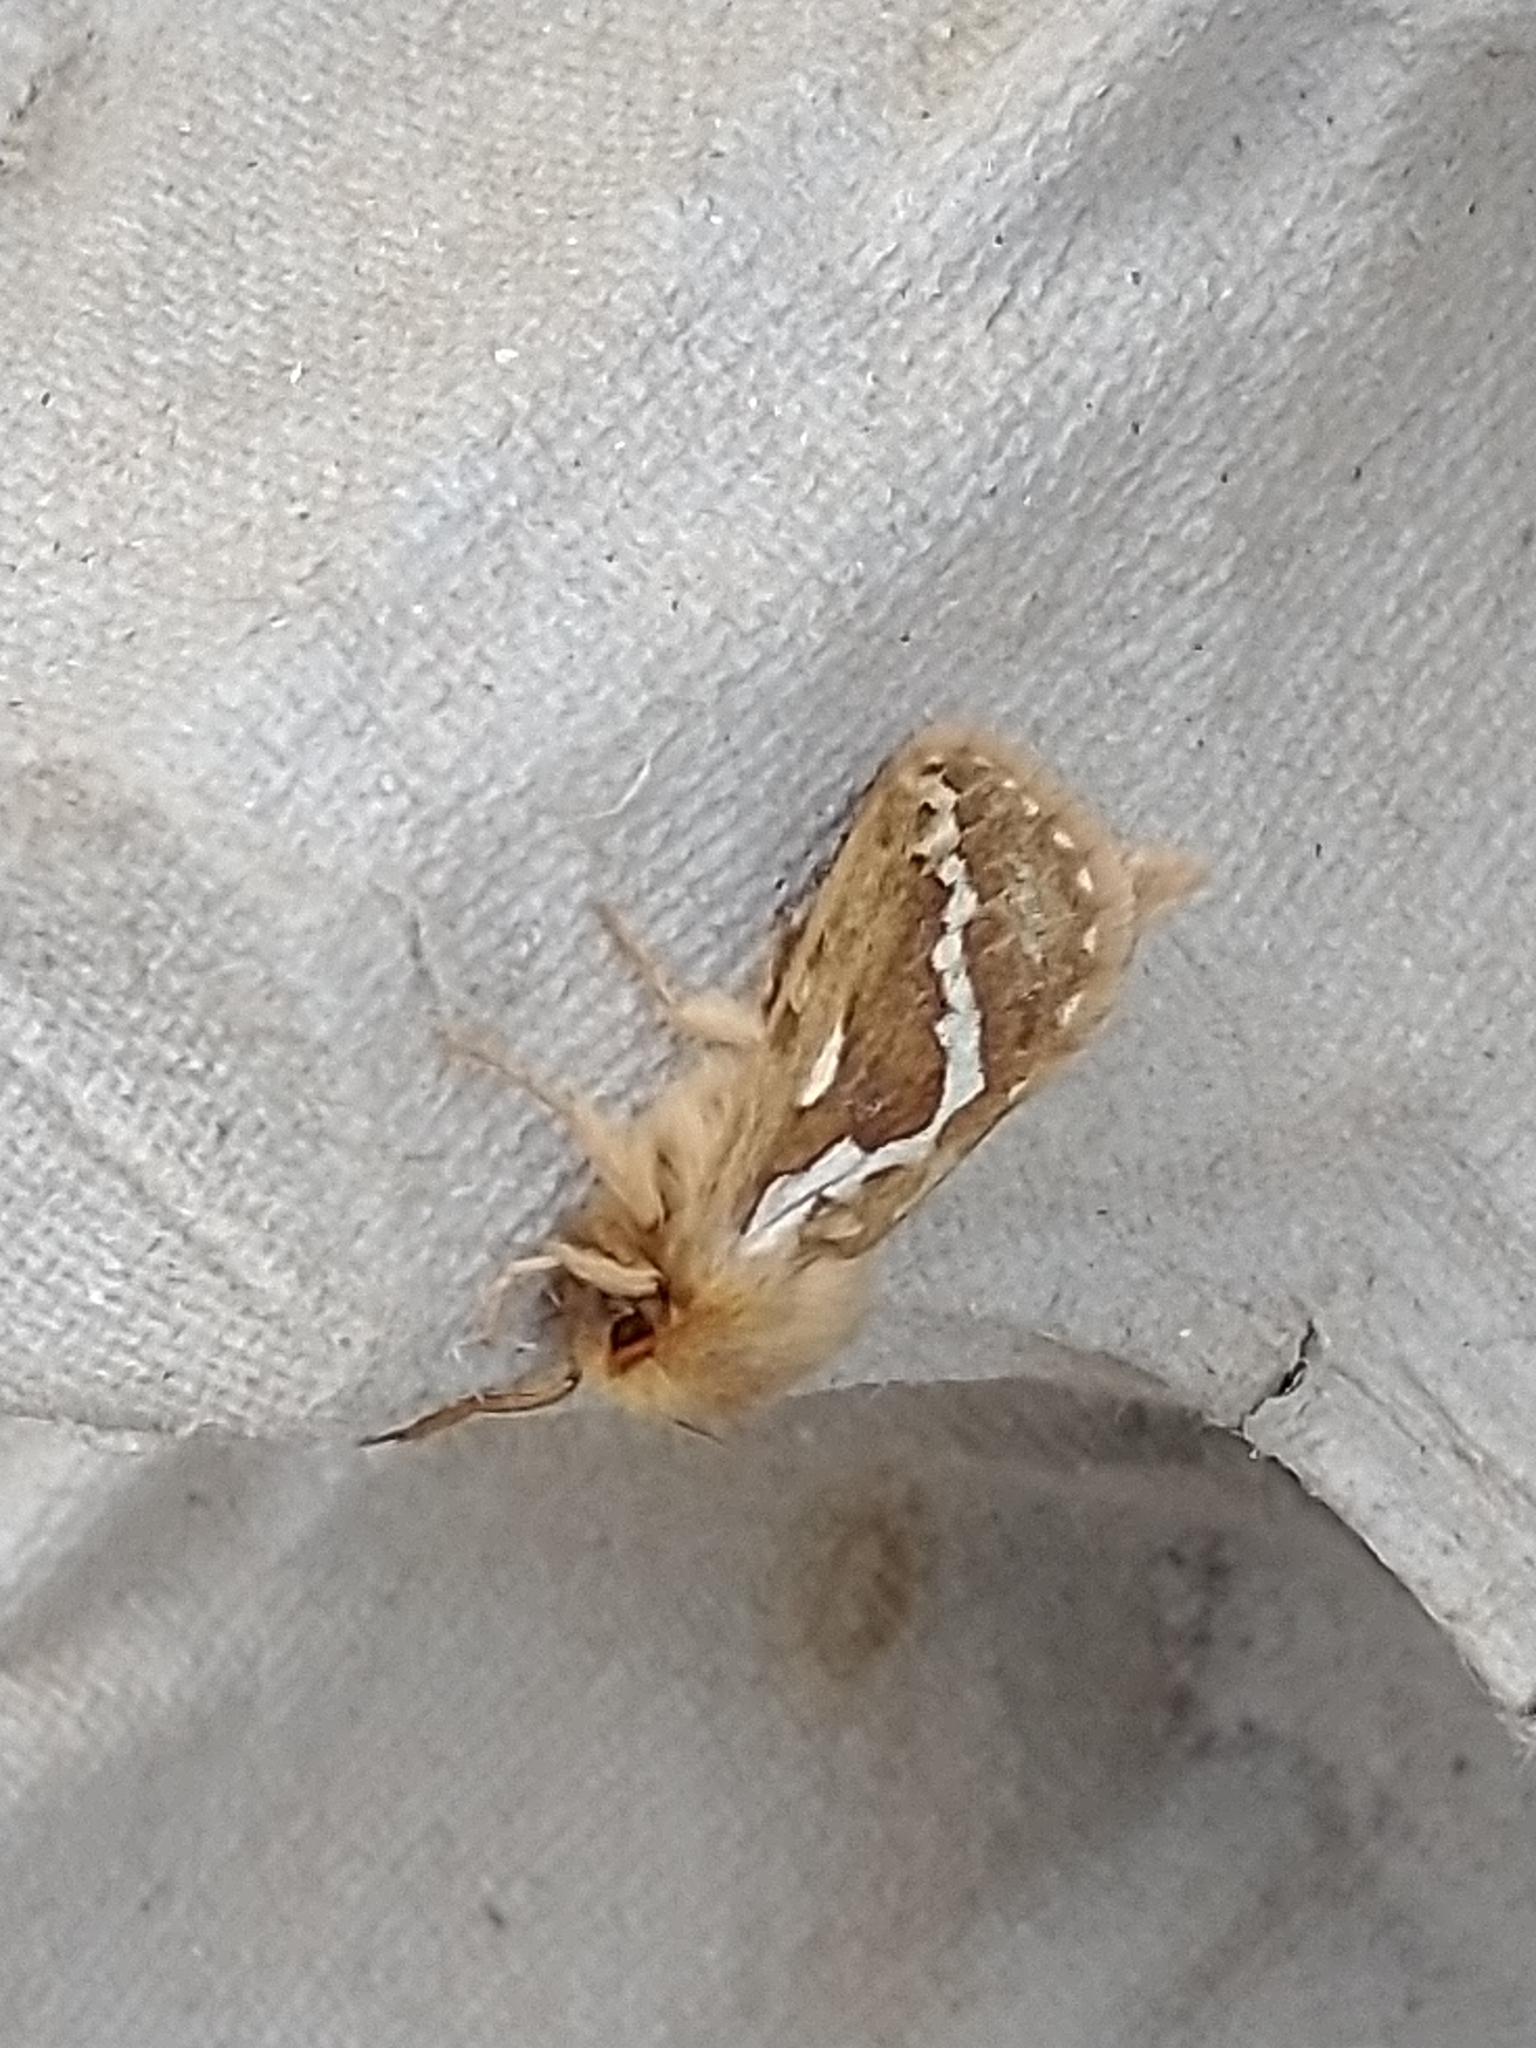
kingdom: Animalia
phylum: Arthropoda
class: Insecta
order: Lepidoptera
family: Hepialidae
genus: Korscheltellus
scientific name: Korscheltellus lupulina
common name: Common swift
